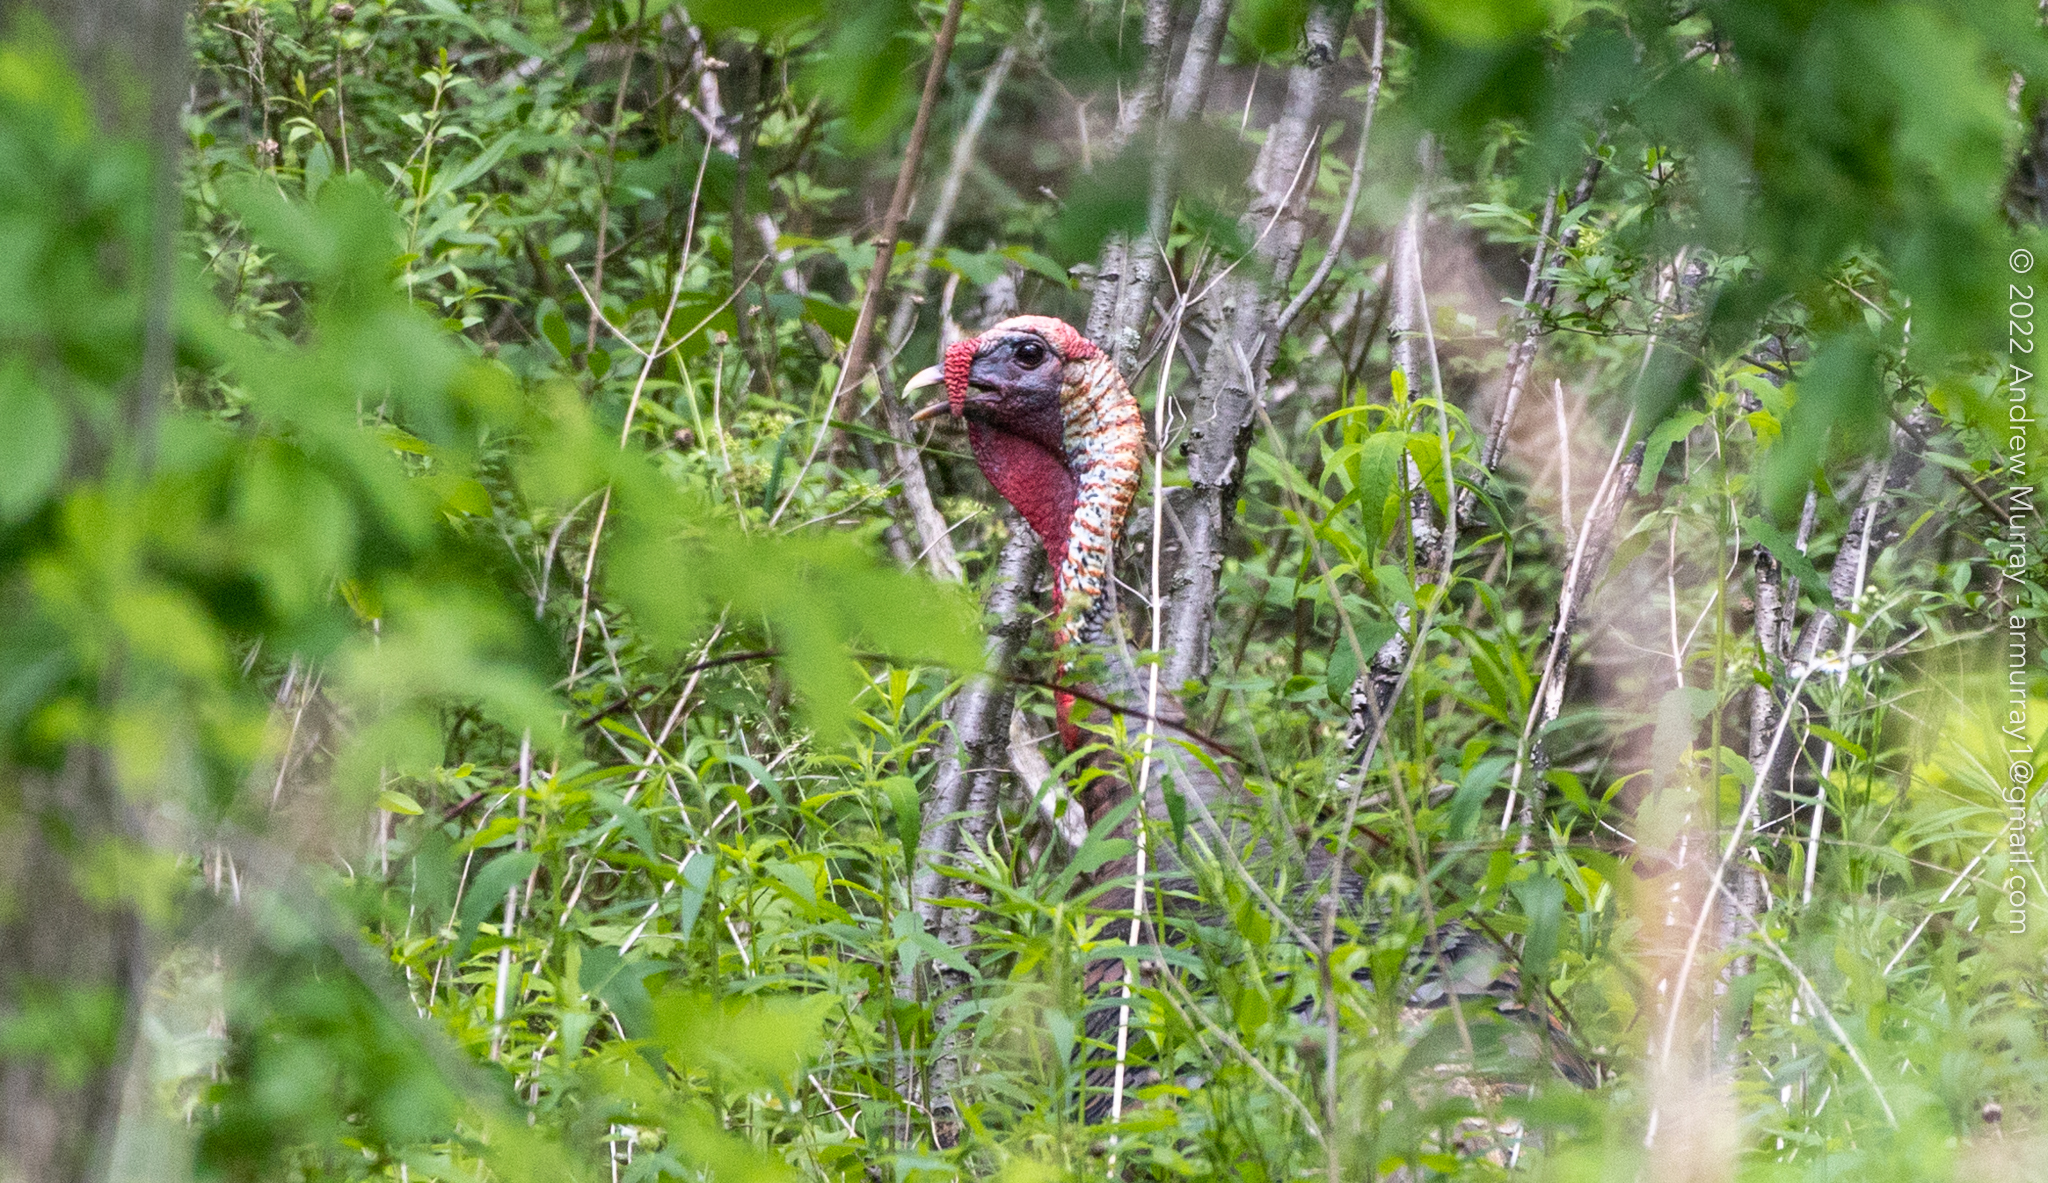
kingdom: Animalia
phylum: Chordata
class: Aves
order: Galliformes
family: Phasianidae
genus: Meleagris
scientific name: Meleagris gallopavo
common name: Wild turkey
